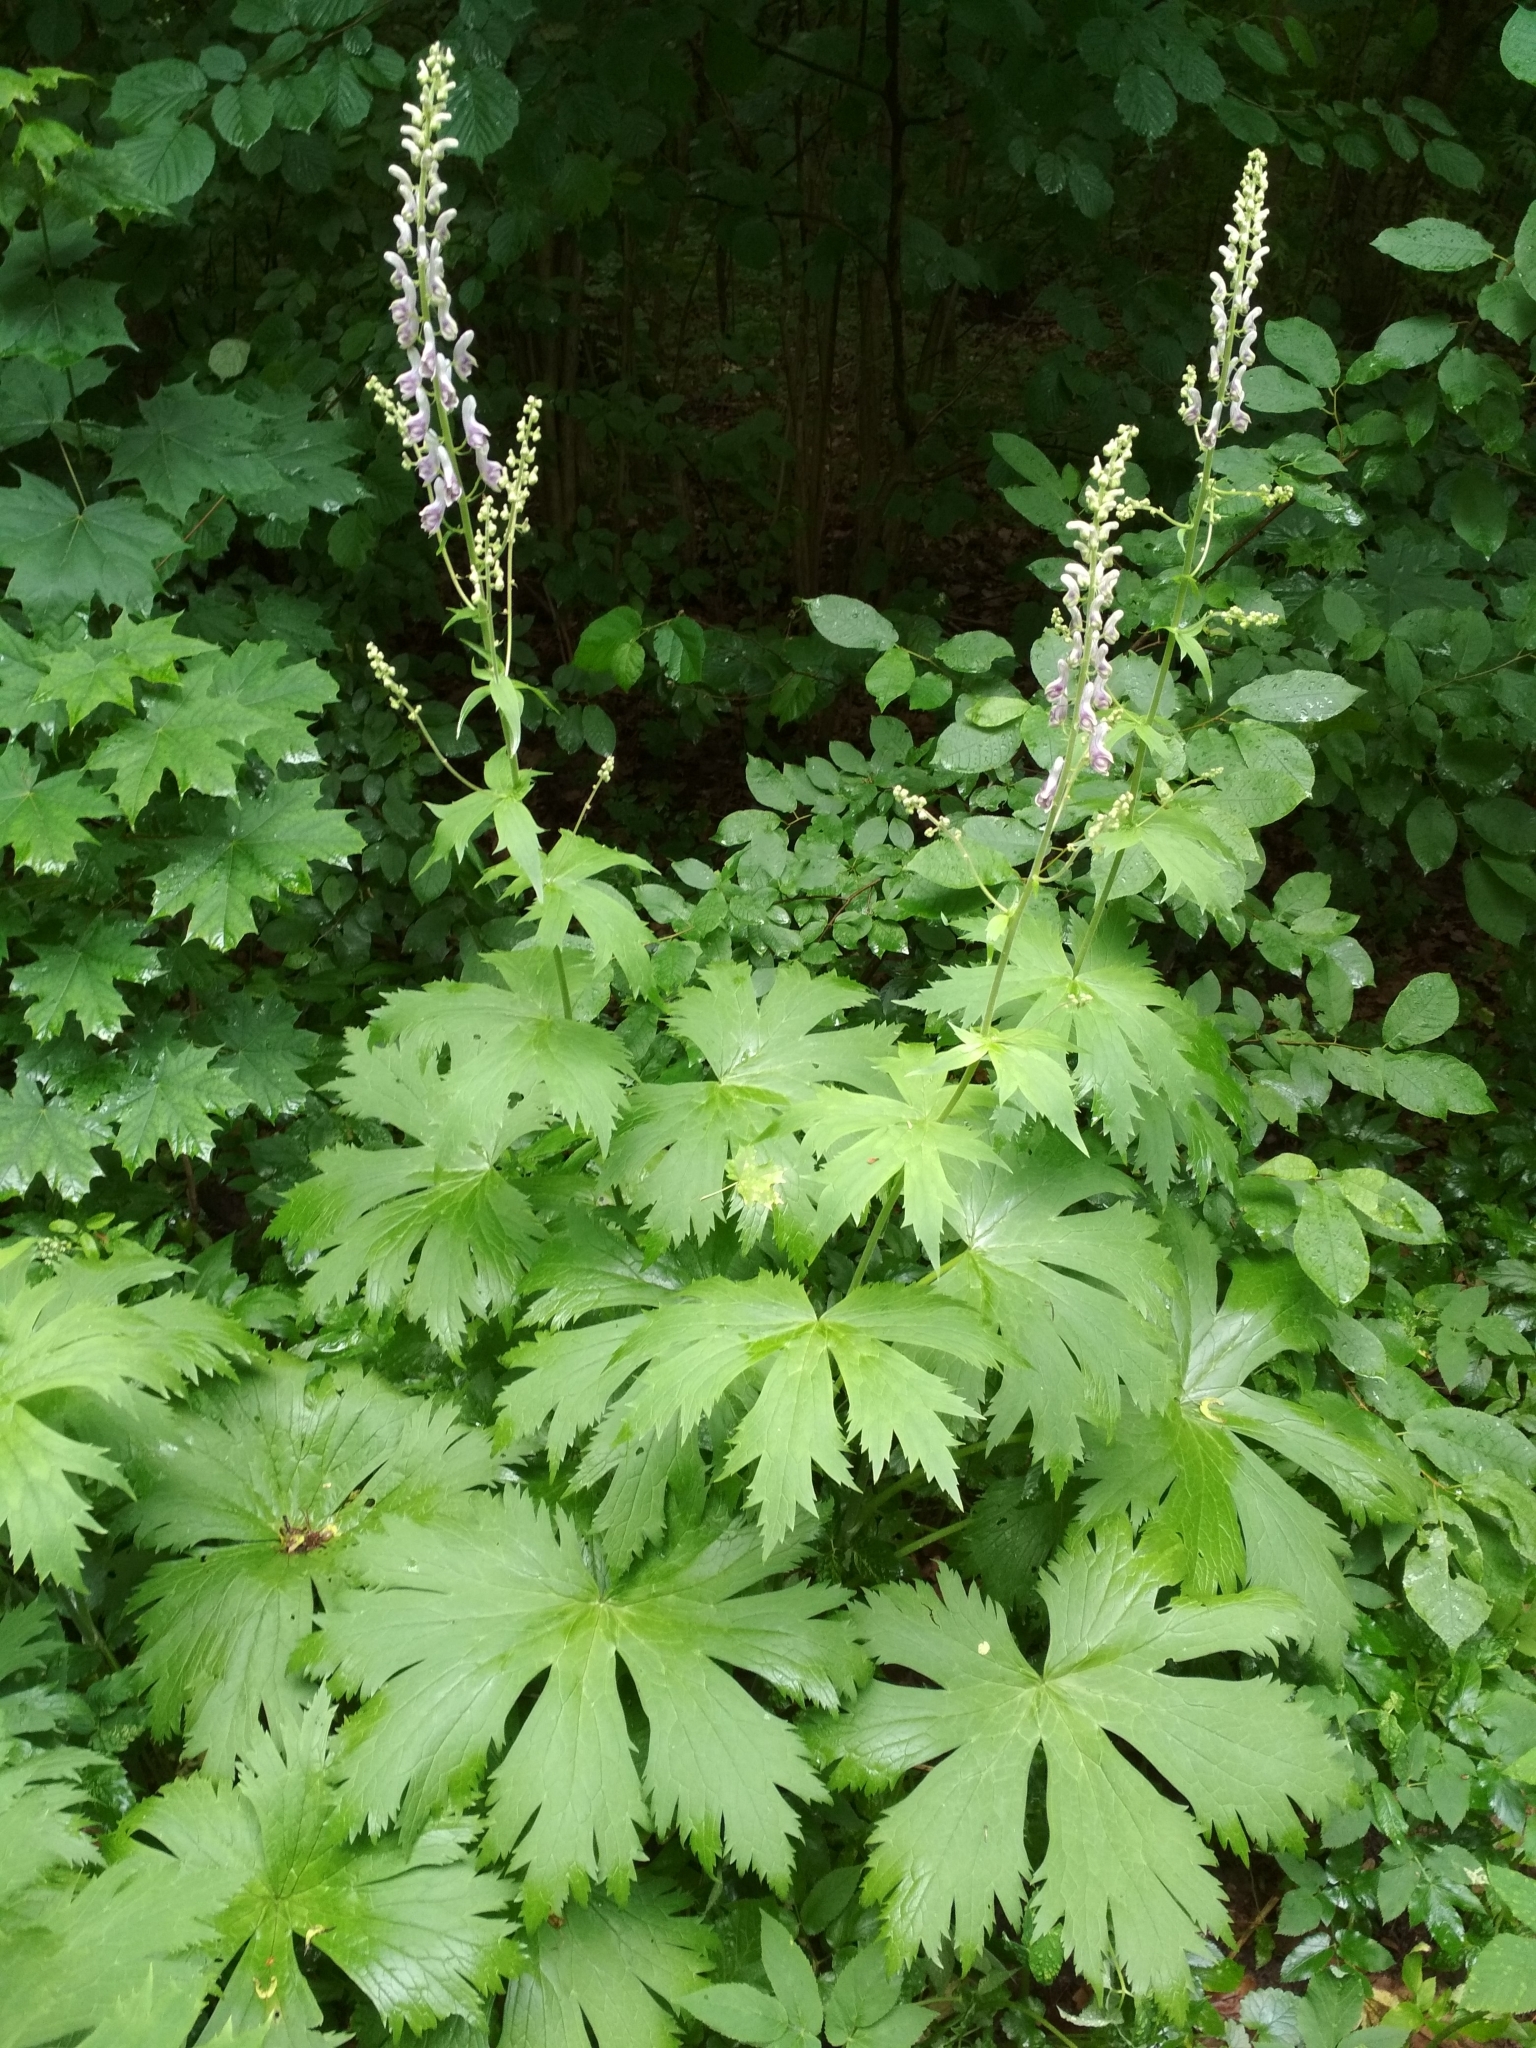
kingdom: Plantae
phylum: Tracheophyta
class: Magnoliopsida
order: Ranunculales
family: Ranunculaceae
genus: Aconitum
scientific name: Aconitum septentrionale
